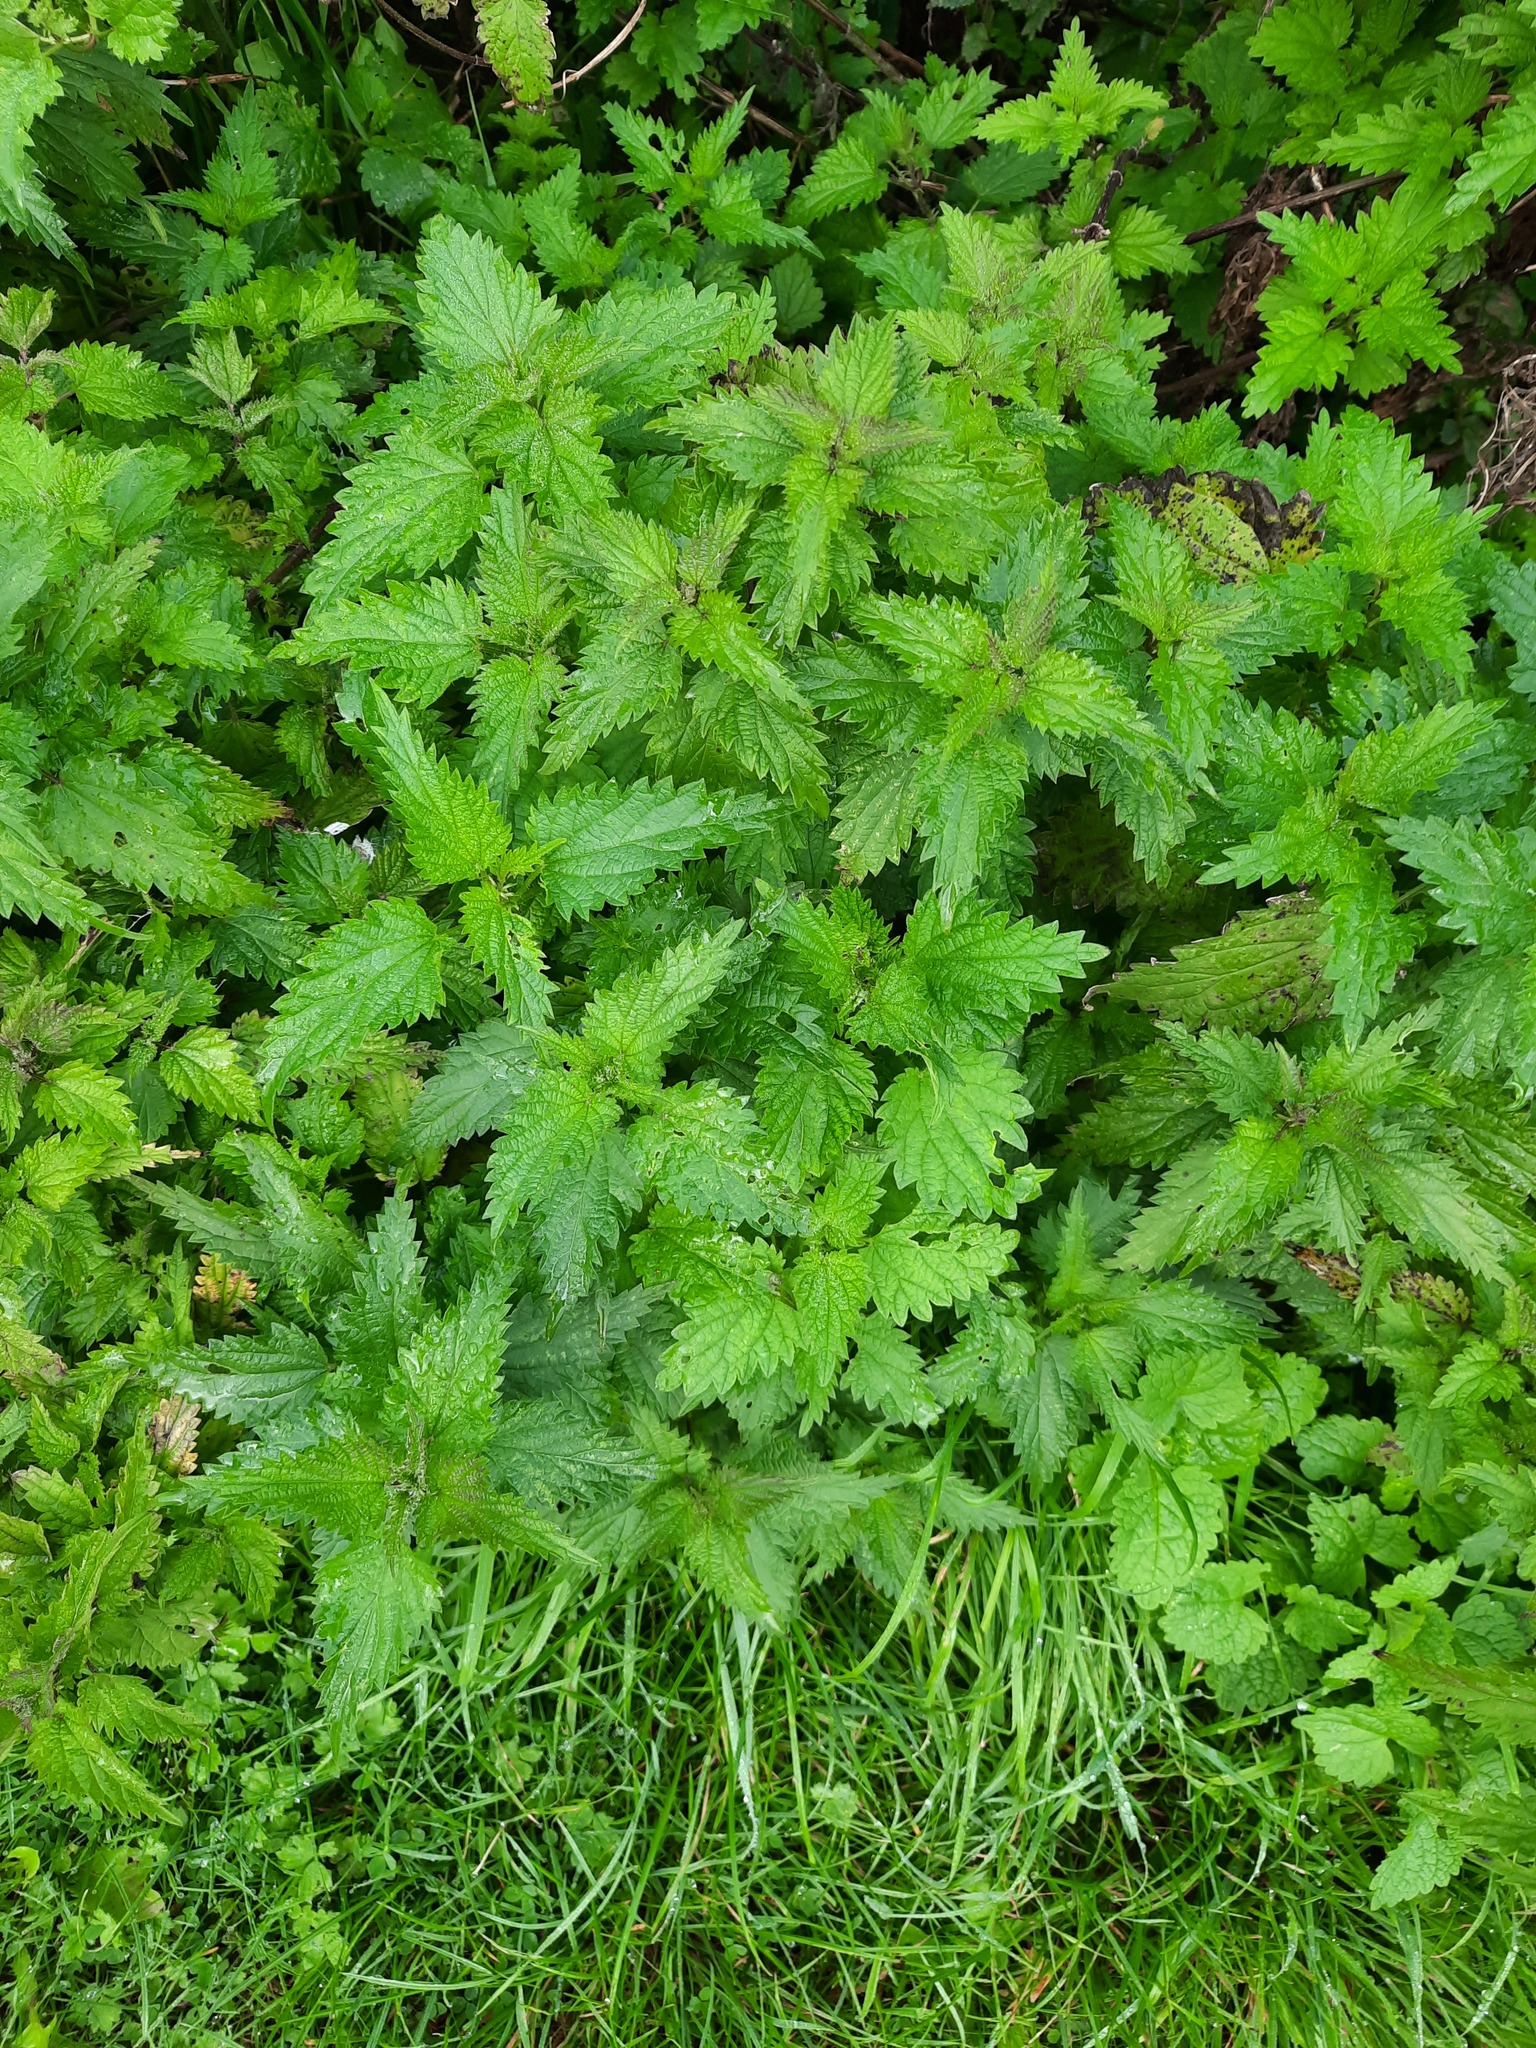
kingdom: Plantae
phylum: Tracheophyta
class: Magnoliopsida
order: Rosales
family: Urticaceae
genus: Urtica
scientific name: Urtica dioica
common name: Common nettle
